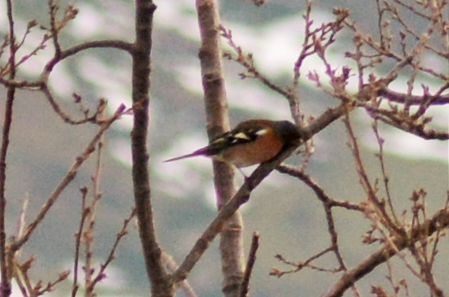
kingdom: Animalia
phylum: Chordata
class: Aves
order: Passeriformes
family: Fringillidae
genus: Fringilla
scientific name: Fringilla coelebs
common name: Common chaffinch
